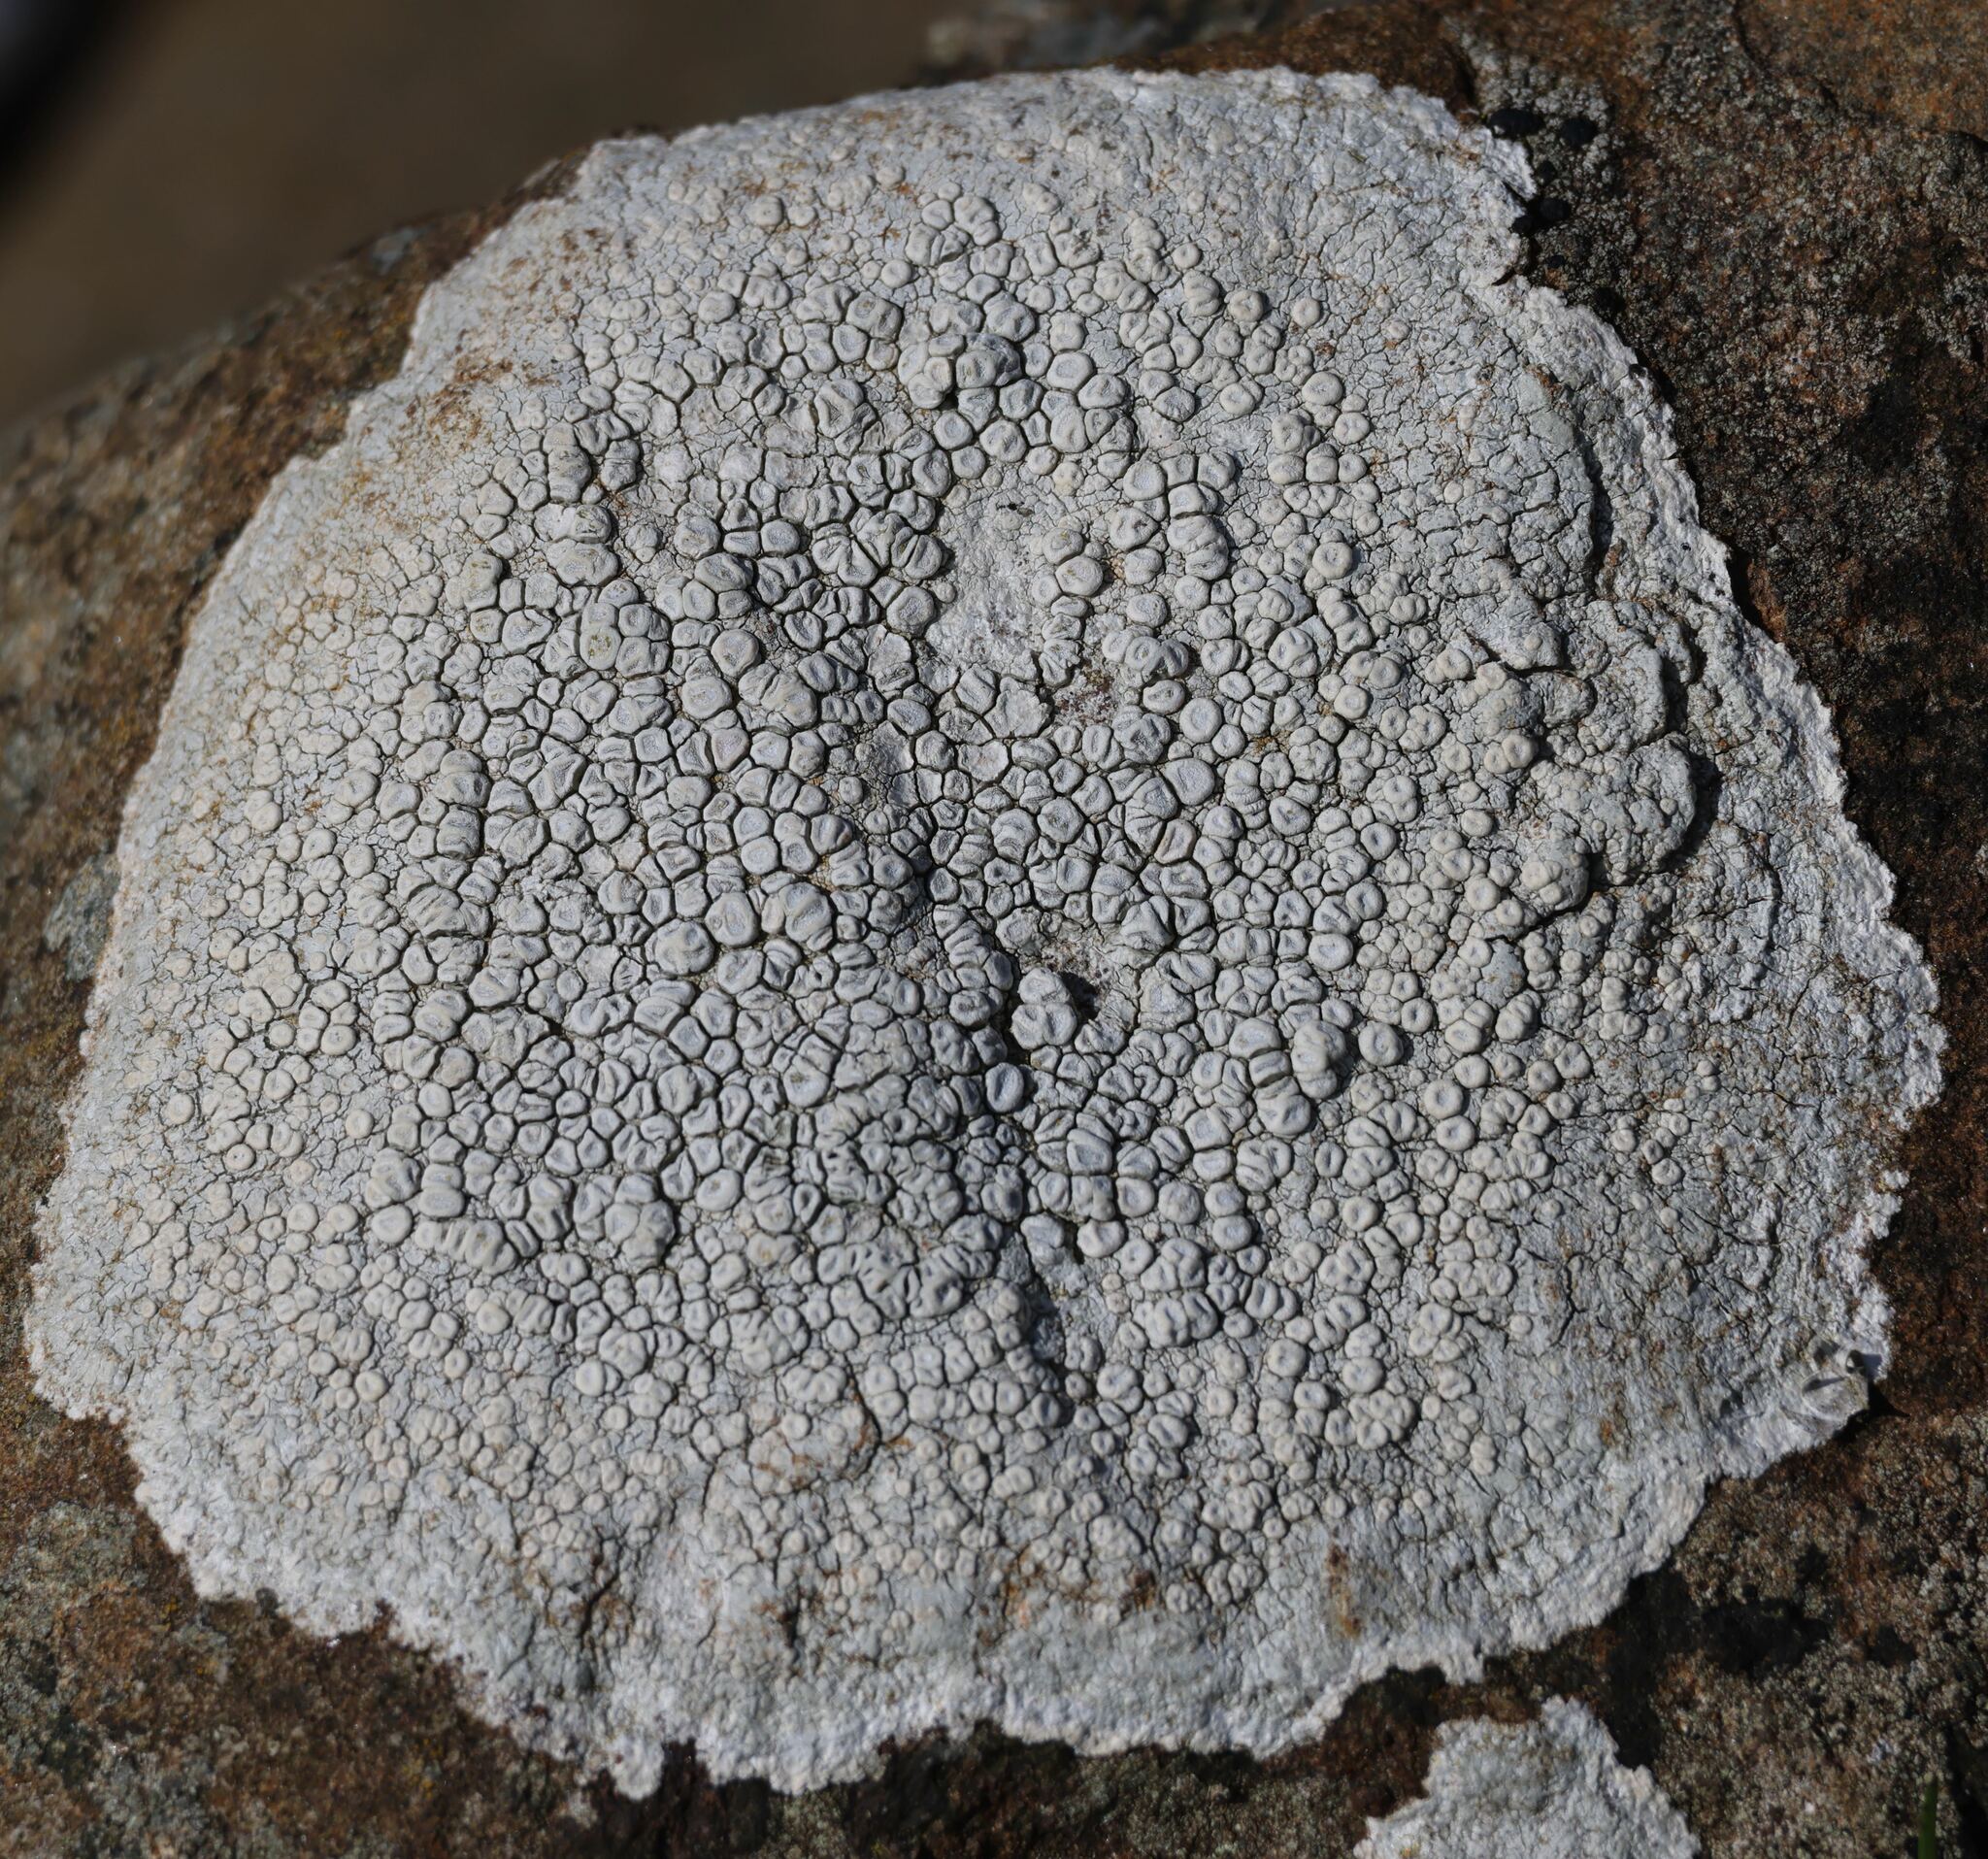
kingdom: Fungi
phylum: Ascomycota
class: Lecanoromycetes
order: Pertusariales
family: Ochrolechiaceae
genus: Ochrolechia
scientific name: Ochrolechia parella
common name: Crab's eye lichen
